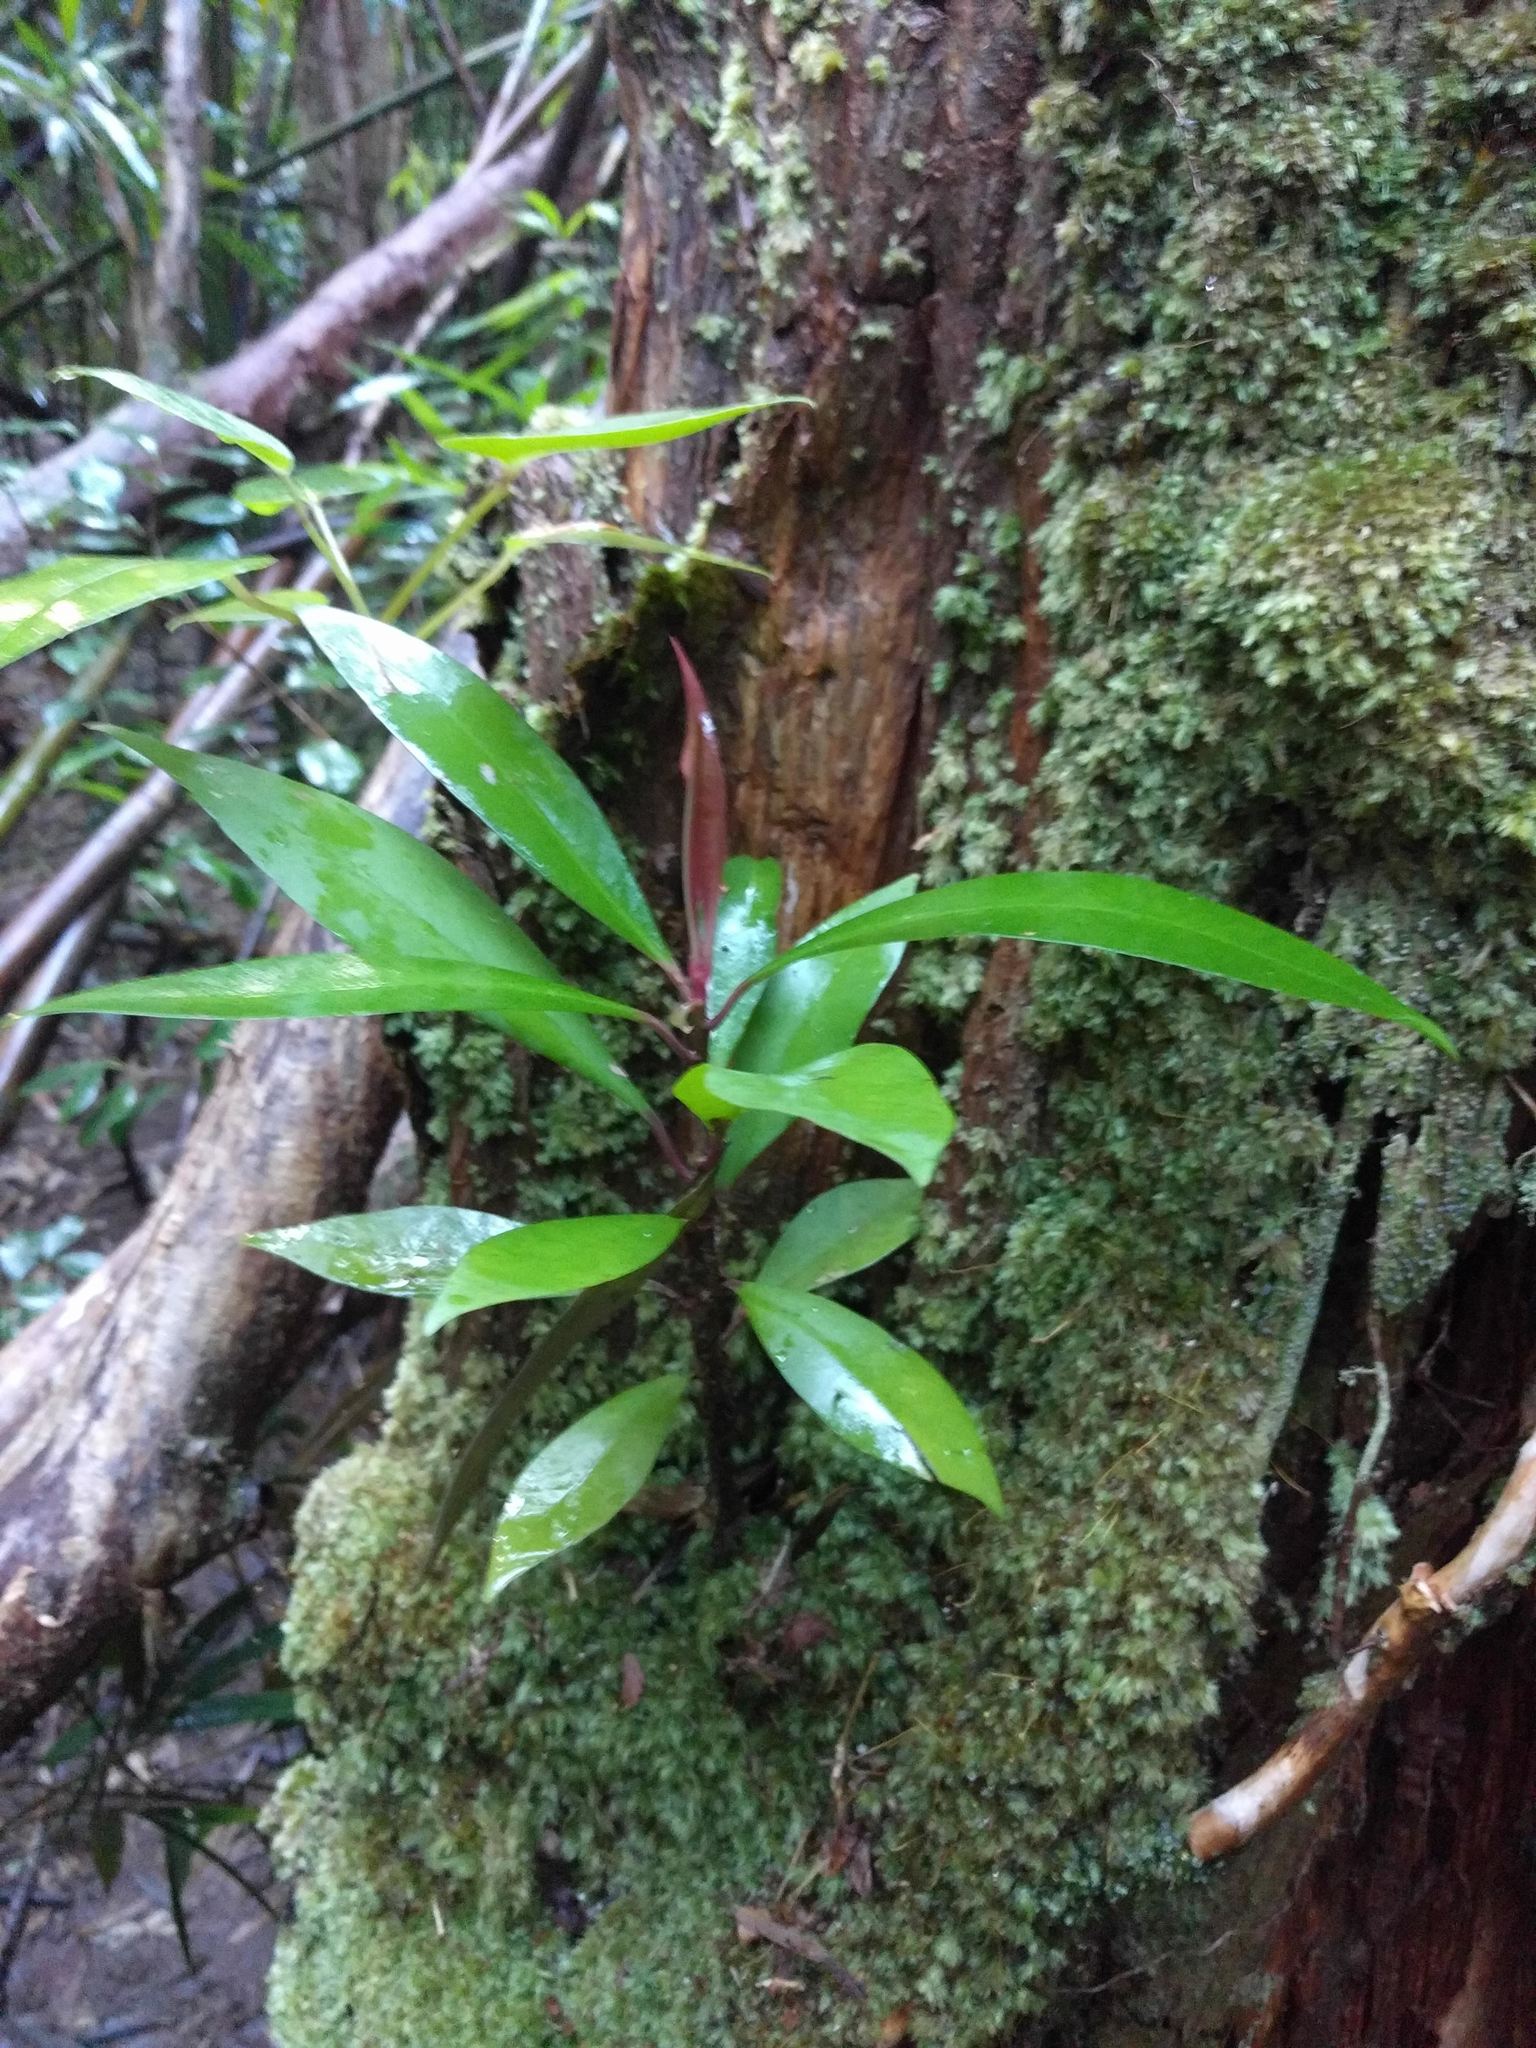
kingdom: Plantae
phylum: Tracheophyta
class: Magnoliopsida
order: Ericales
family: Primulaceae
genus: Ardisia
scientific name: Ardisia elliptica
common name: Shoebutton
